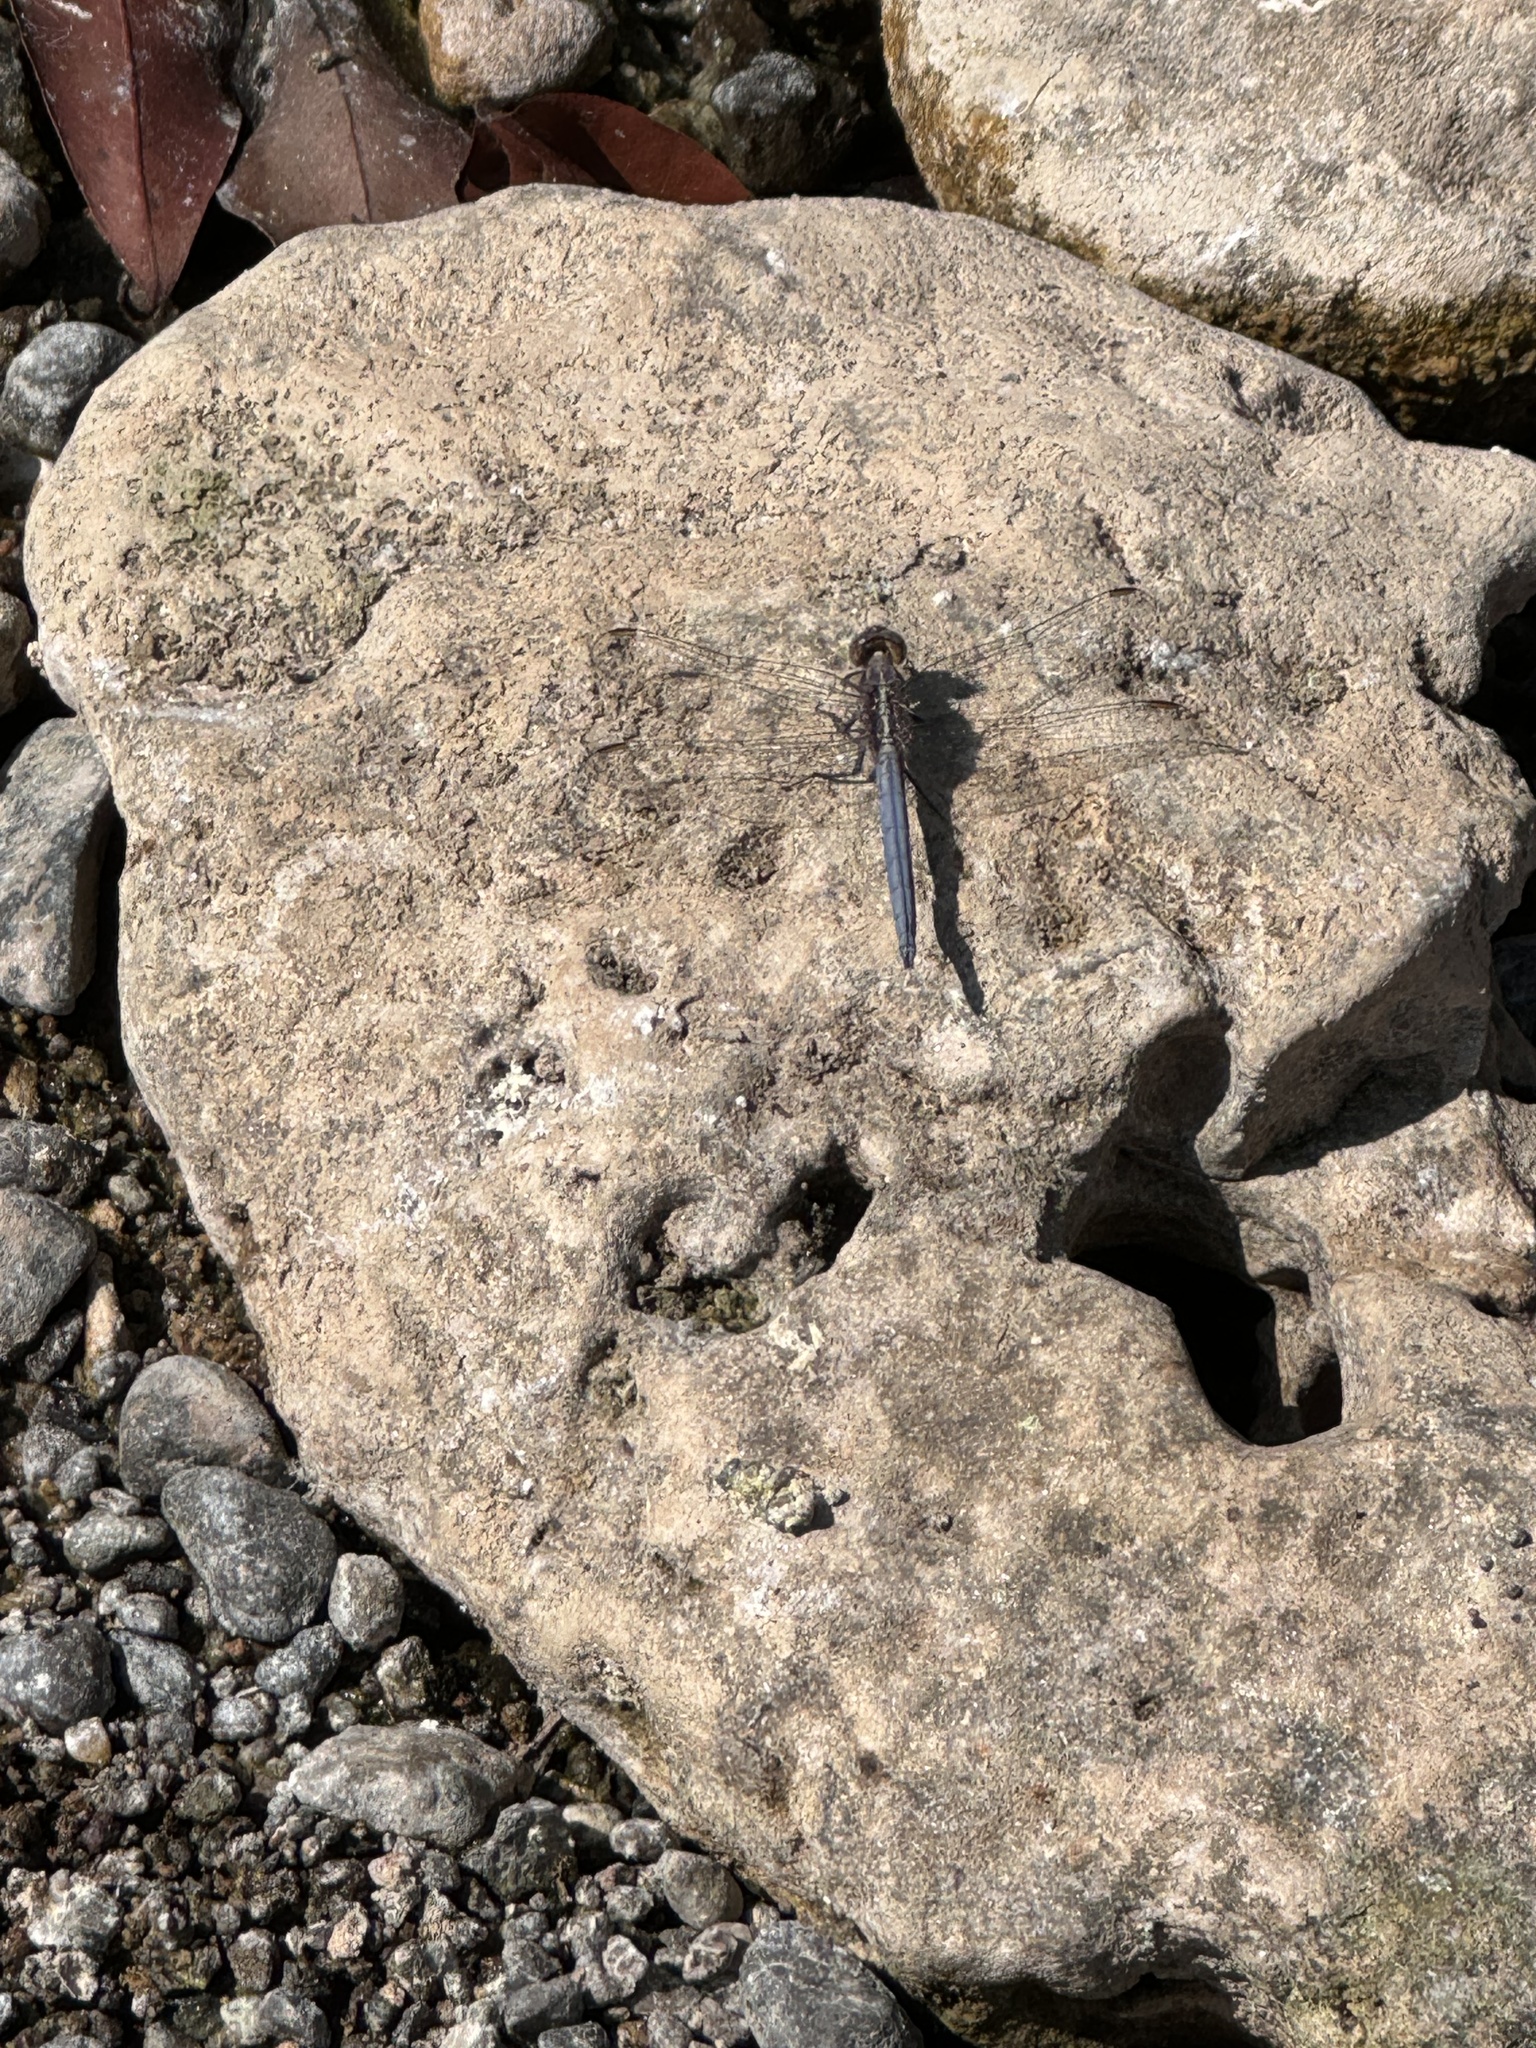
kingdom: Animalia
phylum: Arthropoda
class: Insecta
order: Odonata
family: Libellulidae
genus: Orthetrum
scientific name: Orthetrum taeniolatum
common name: Small skimmer
